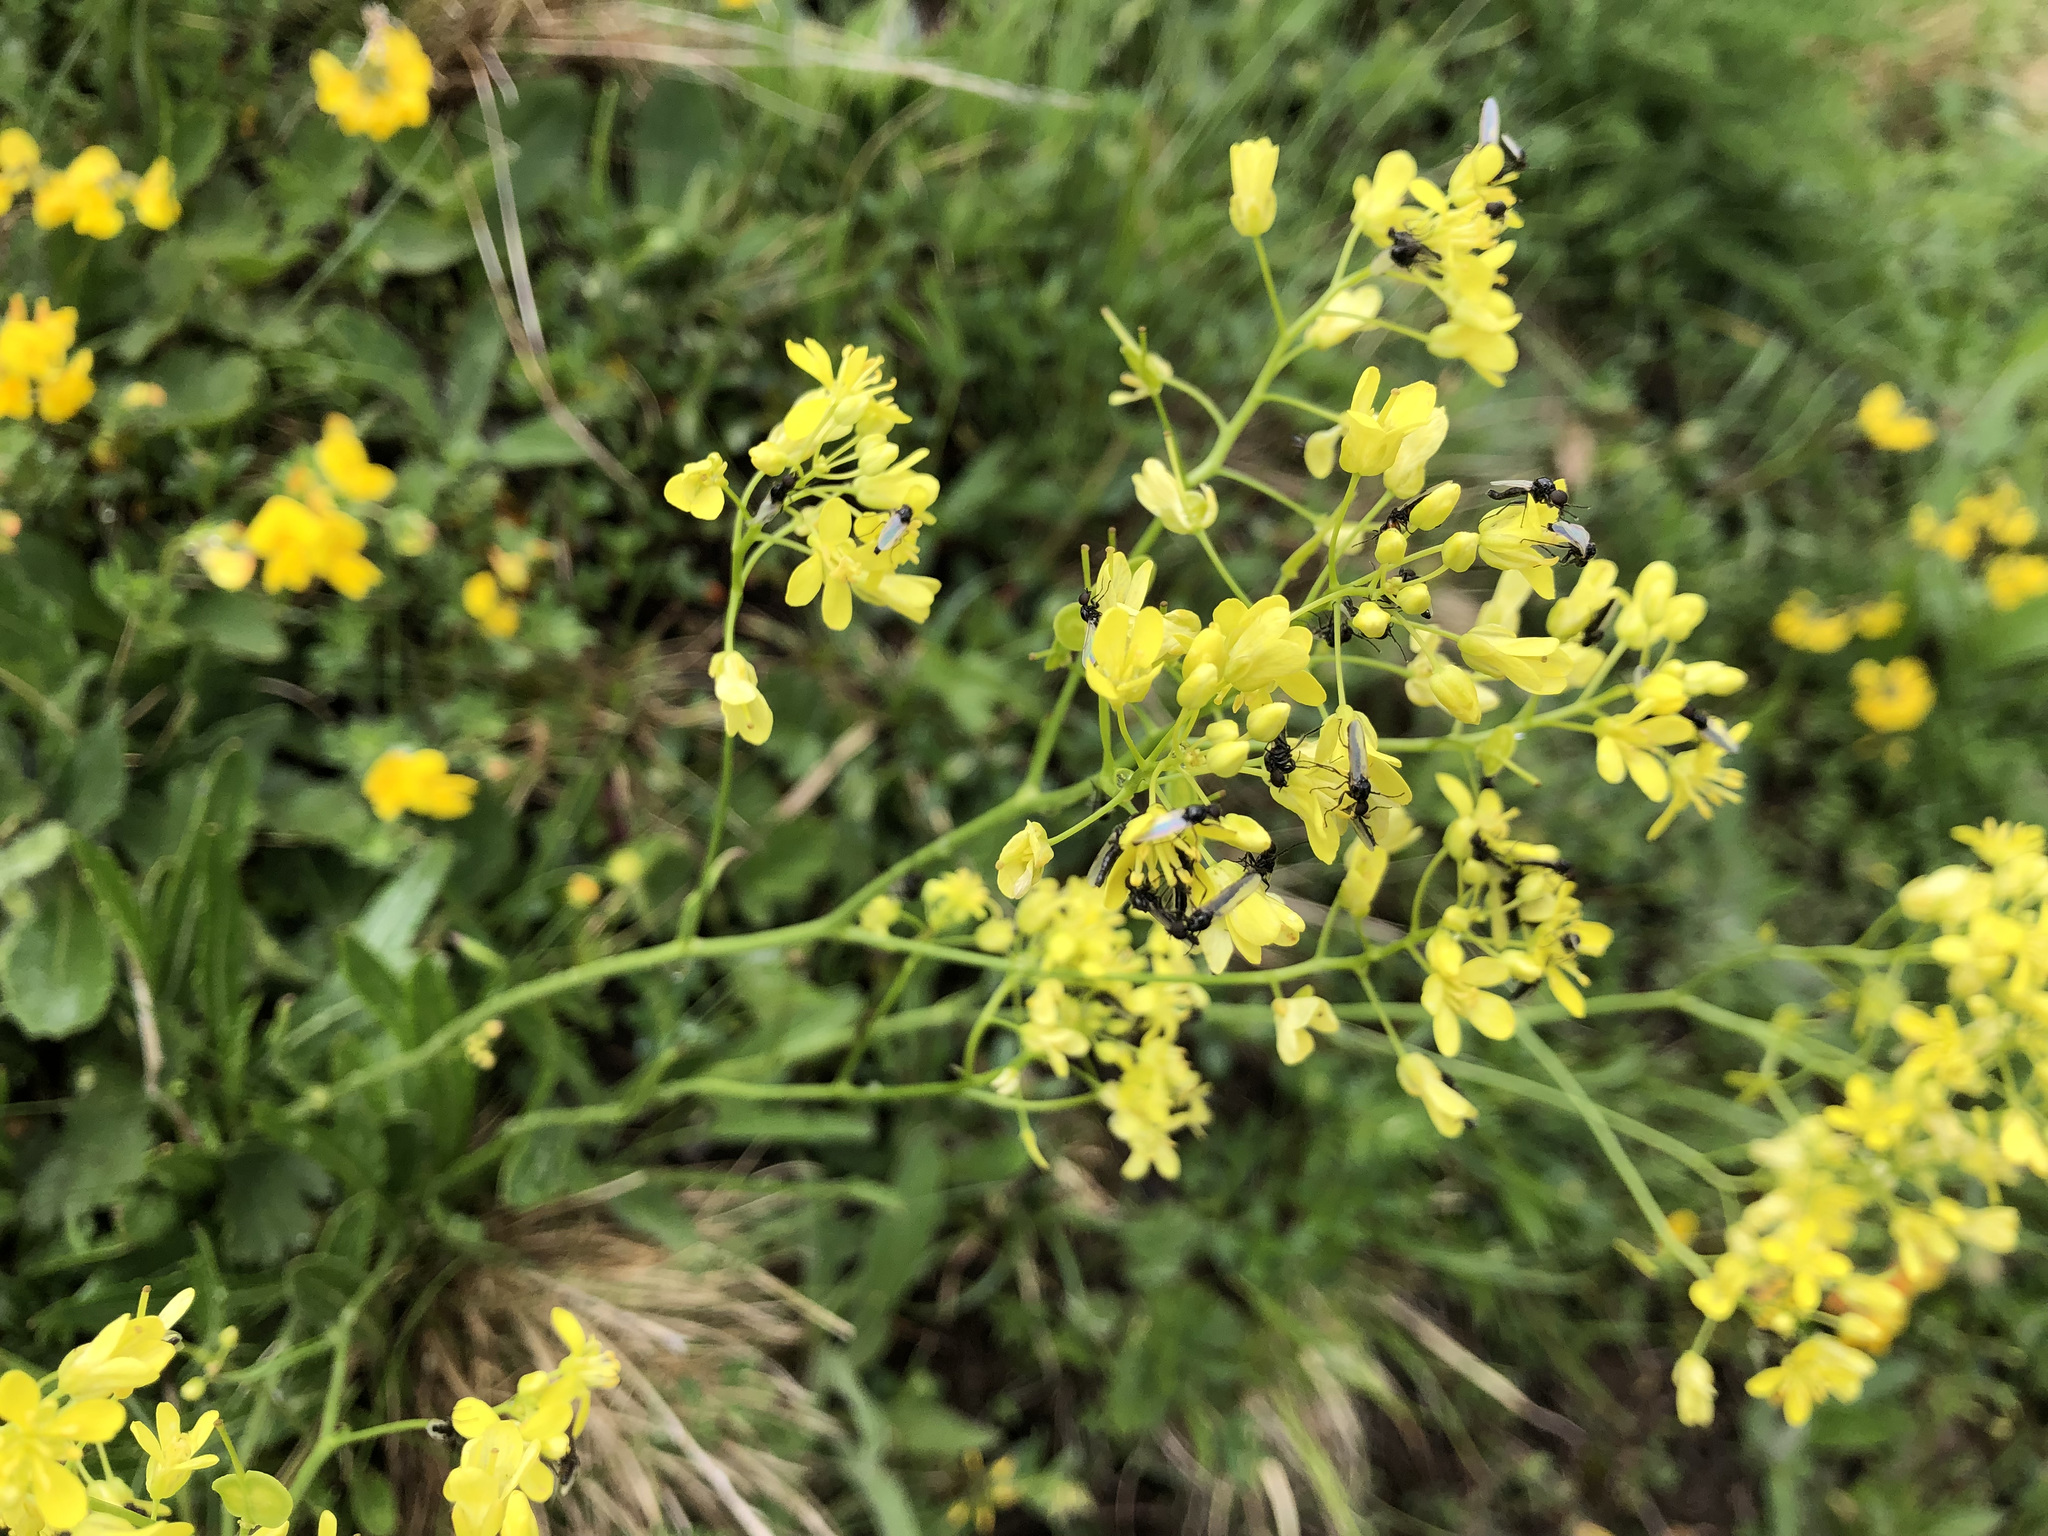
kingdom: Plantae
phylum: Tracheophyta
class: Magnoliopsida
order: Brassicales
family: Brassicaceae
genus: Biscutella
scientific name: Biscutella laevigata
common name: Buckler mustard
